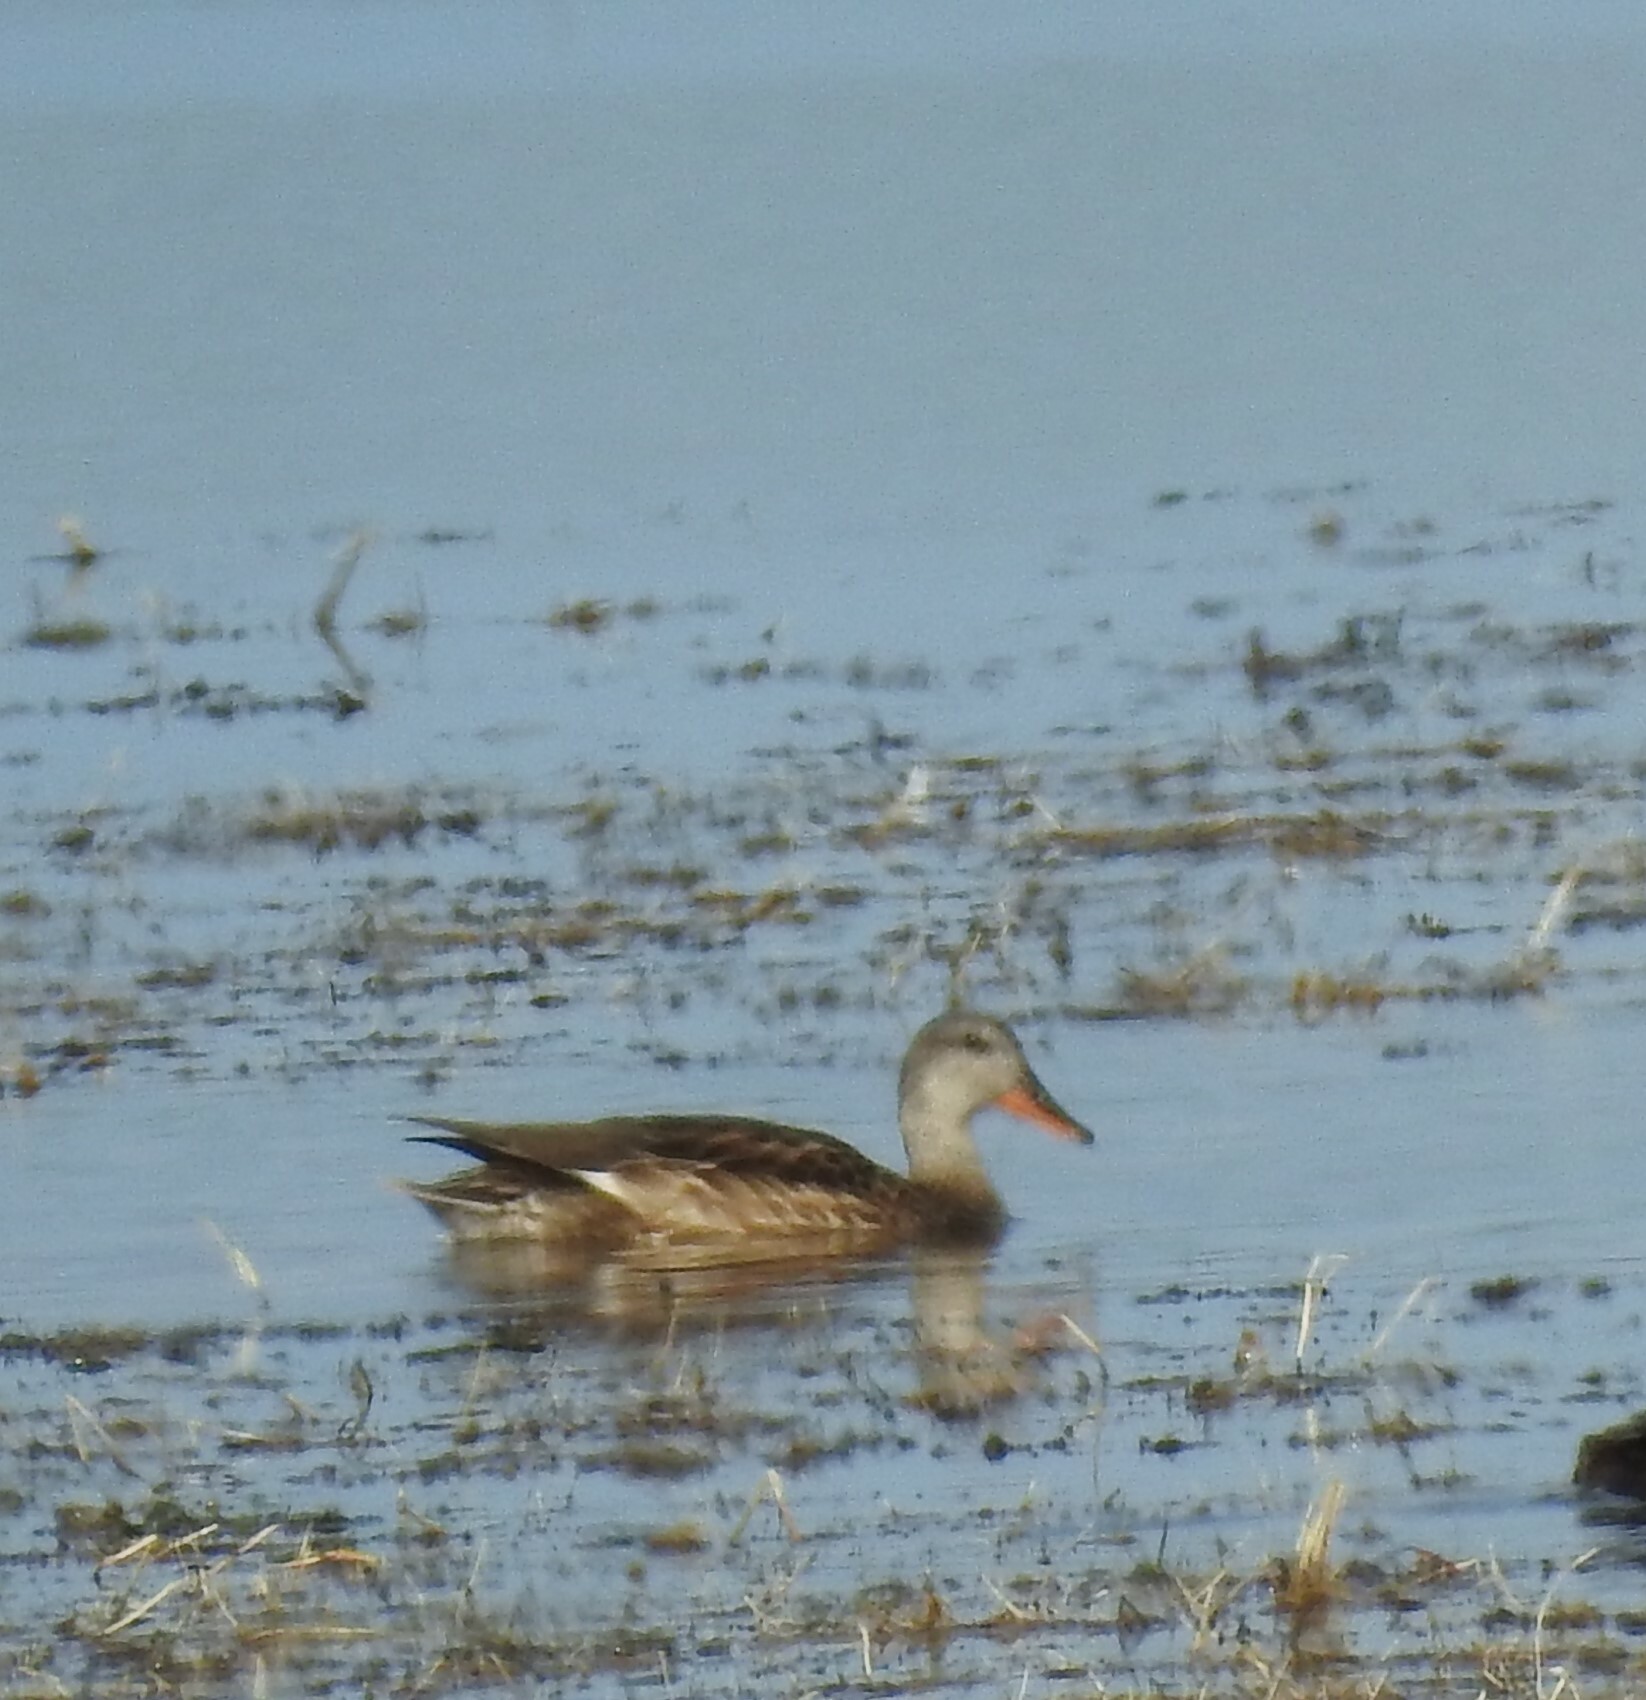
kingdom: Animalia
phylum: Chordata
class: Aves
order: Anseriformes
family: Anatidae
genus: Mareca
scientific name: Mareca strepera
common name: Gadwall
